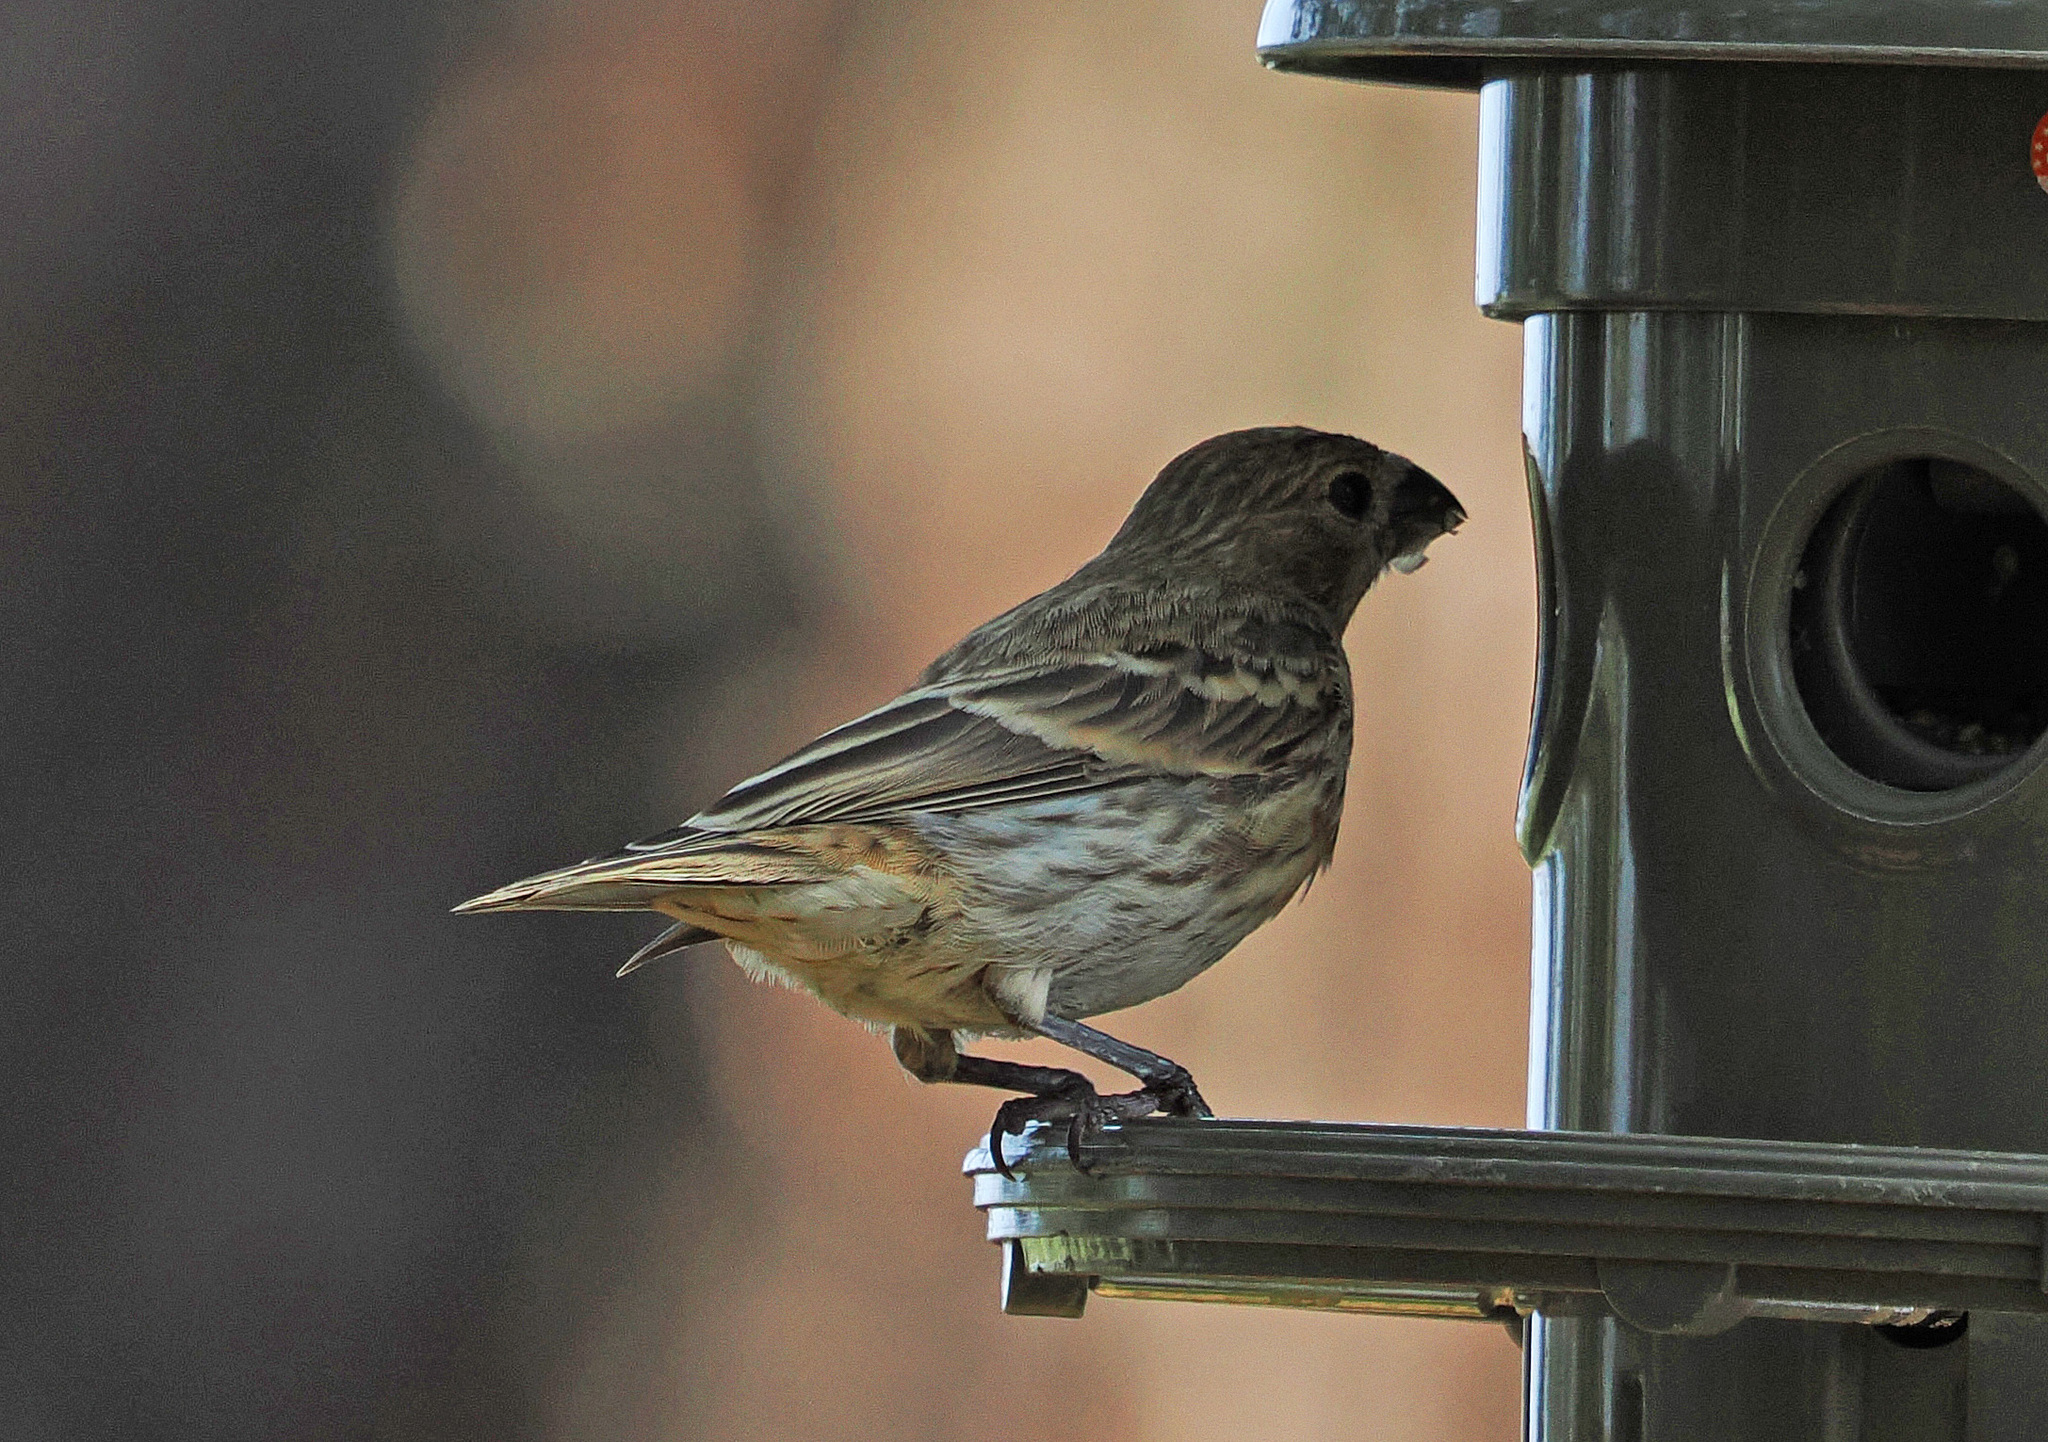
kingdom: Animalia
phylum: Chordata
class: Aves
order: Passeriformes
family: Fringillidae
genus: Haemorhous
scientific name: Haemorhous mexicanus
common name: House finch
